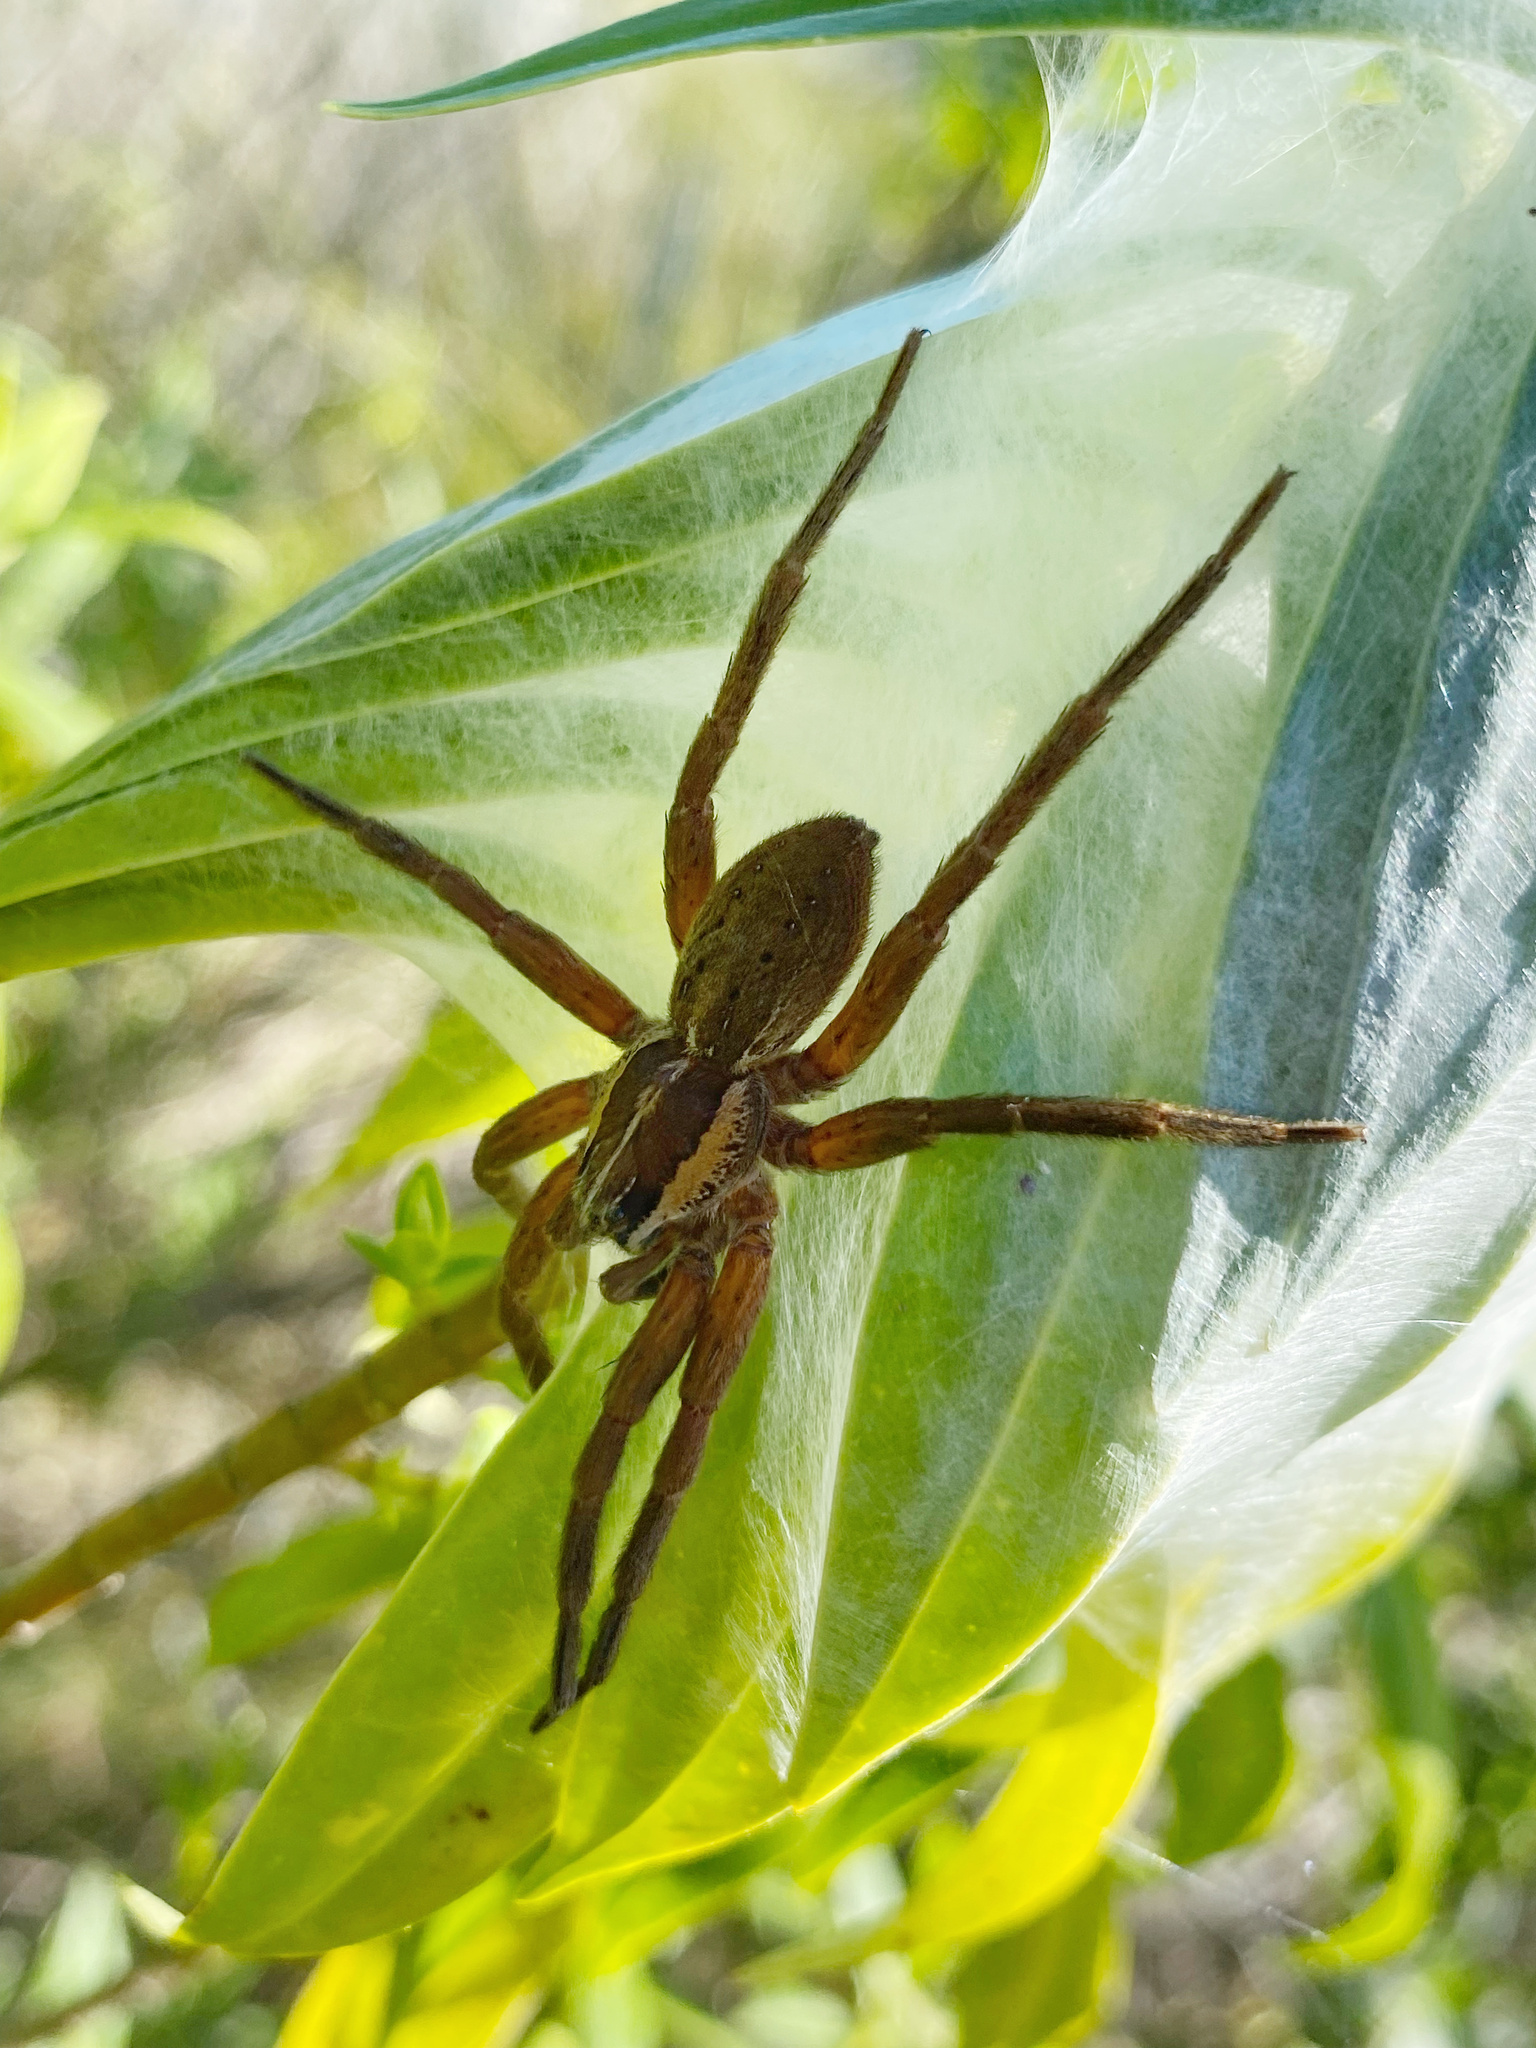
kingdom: Animalia
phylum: Arthropoda
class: Arachnida
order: Araneae
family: Pisauridae
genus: Dolomedes
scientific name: Dolomedes minor
